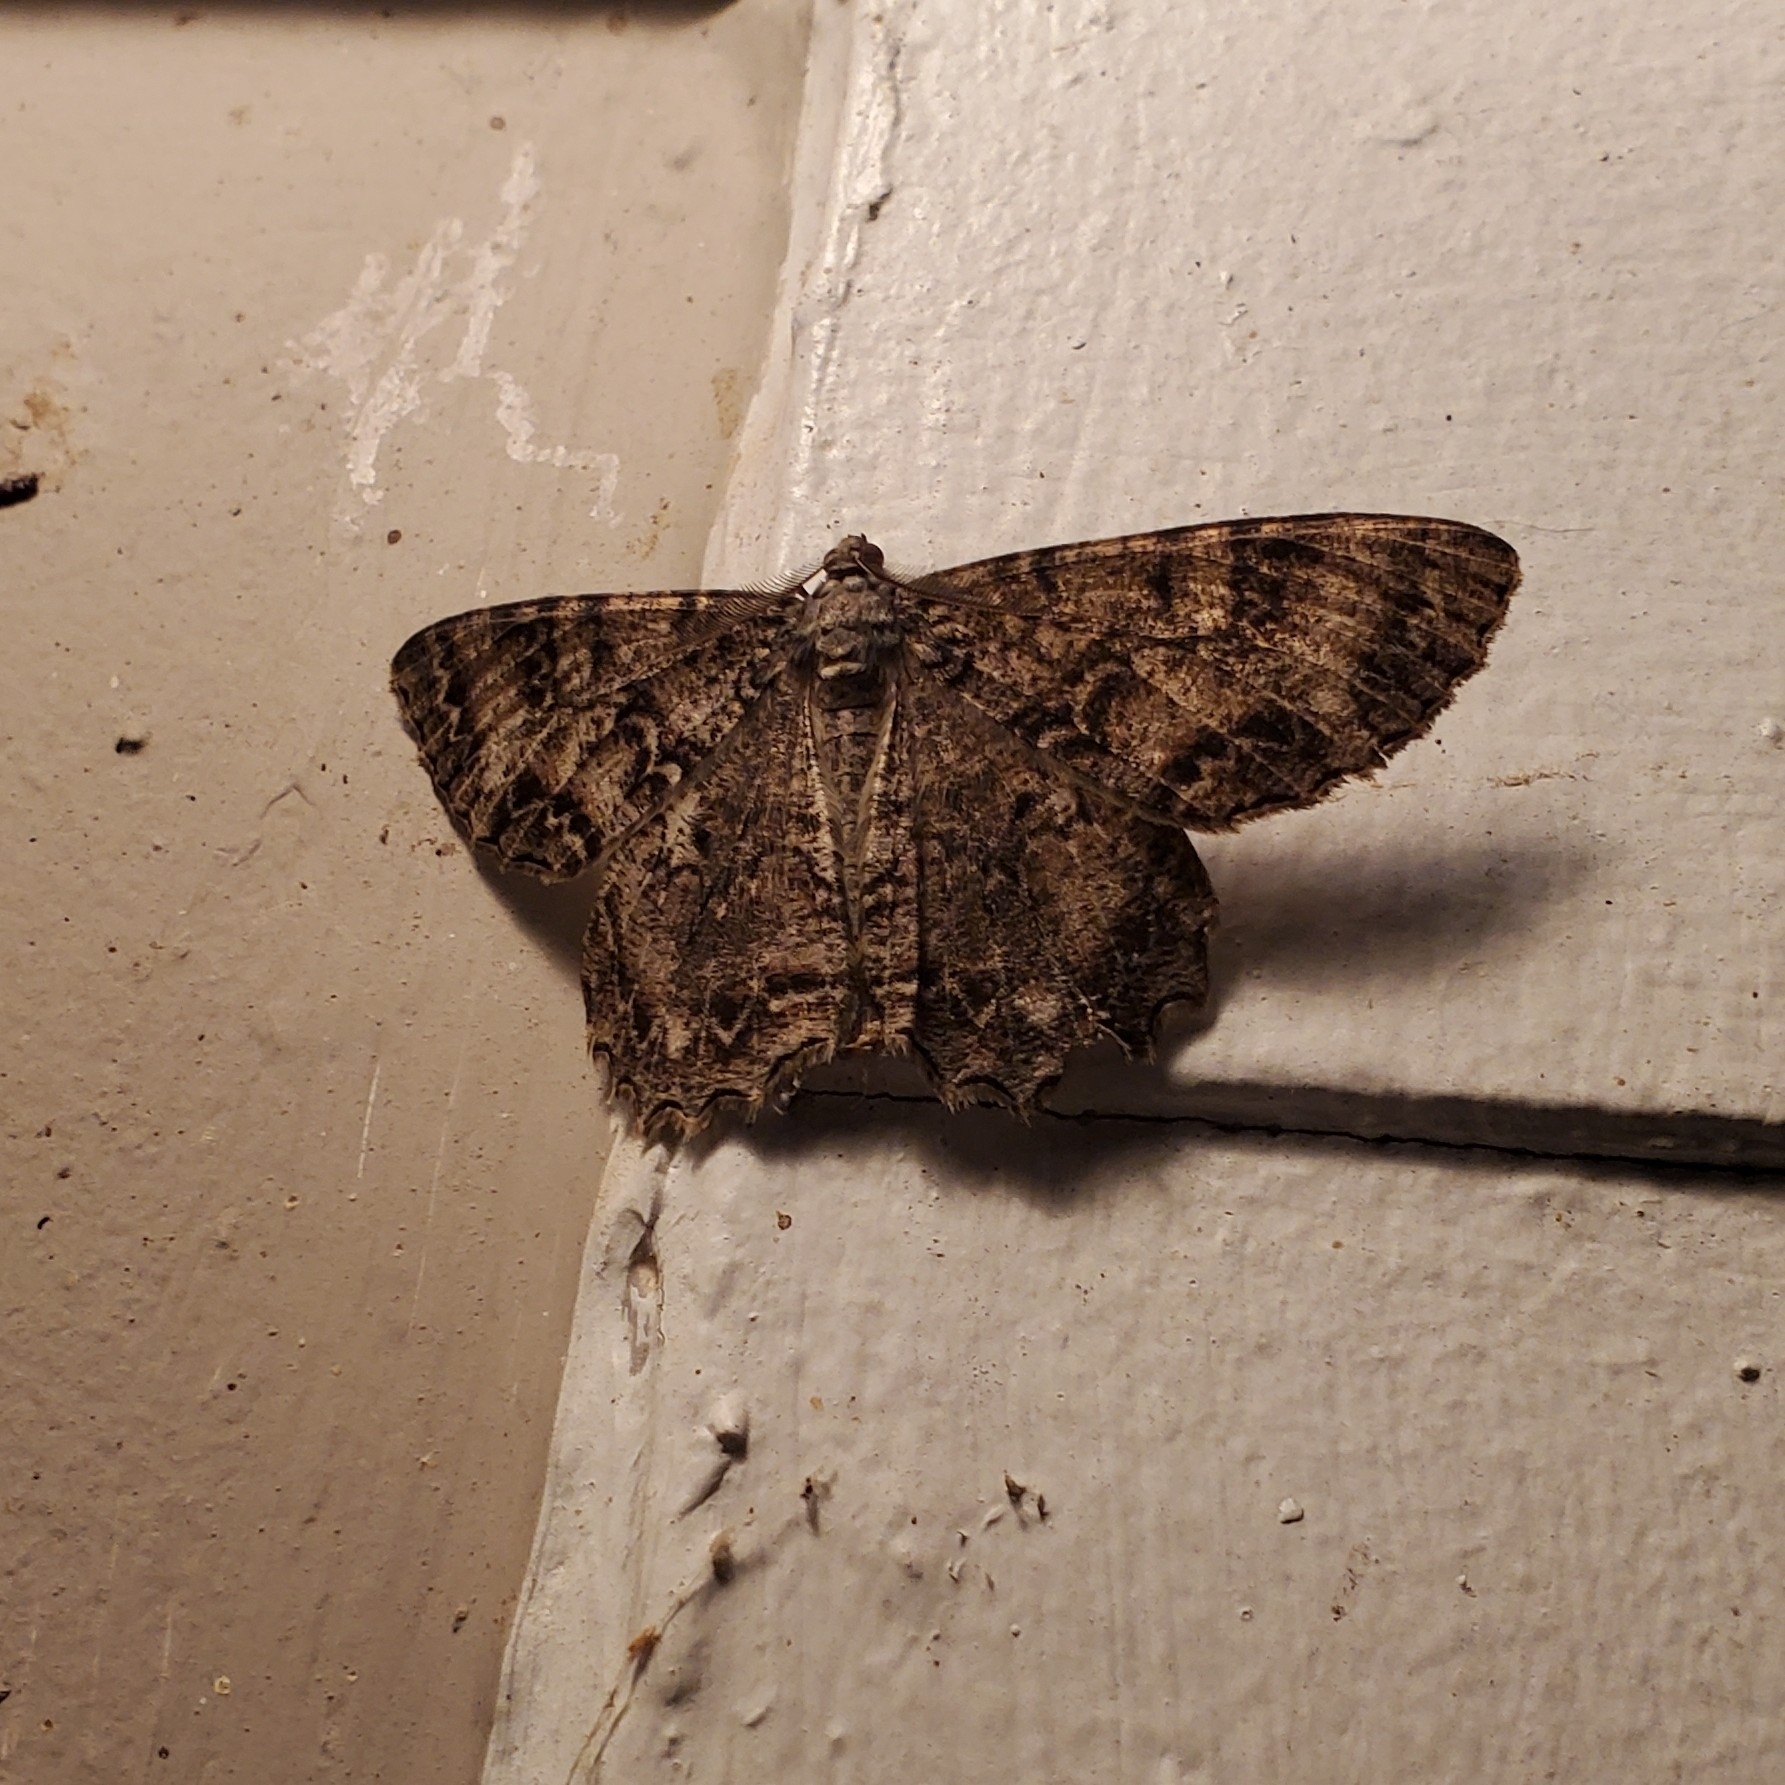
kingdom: Animalia
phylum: Arthropoda
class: Insecta
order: Lepidoptera
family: Geometridae
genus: Epimecis
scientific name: Epimecis hortaria
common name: Tulip-tree beauty
